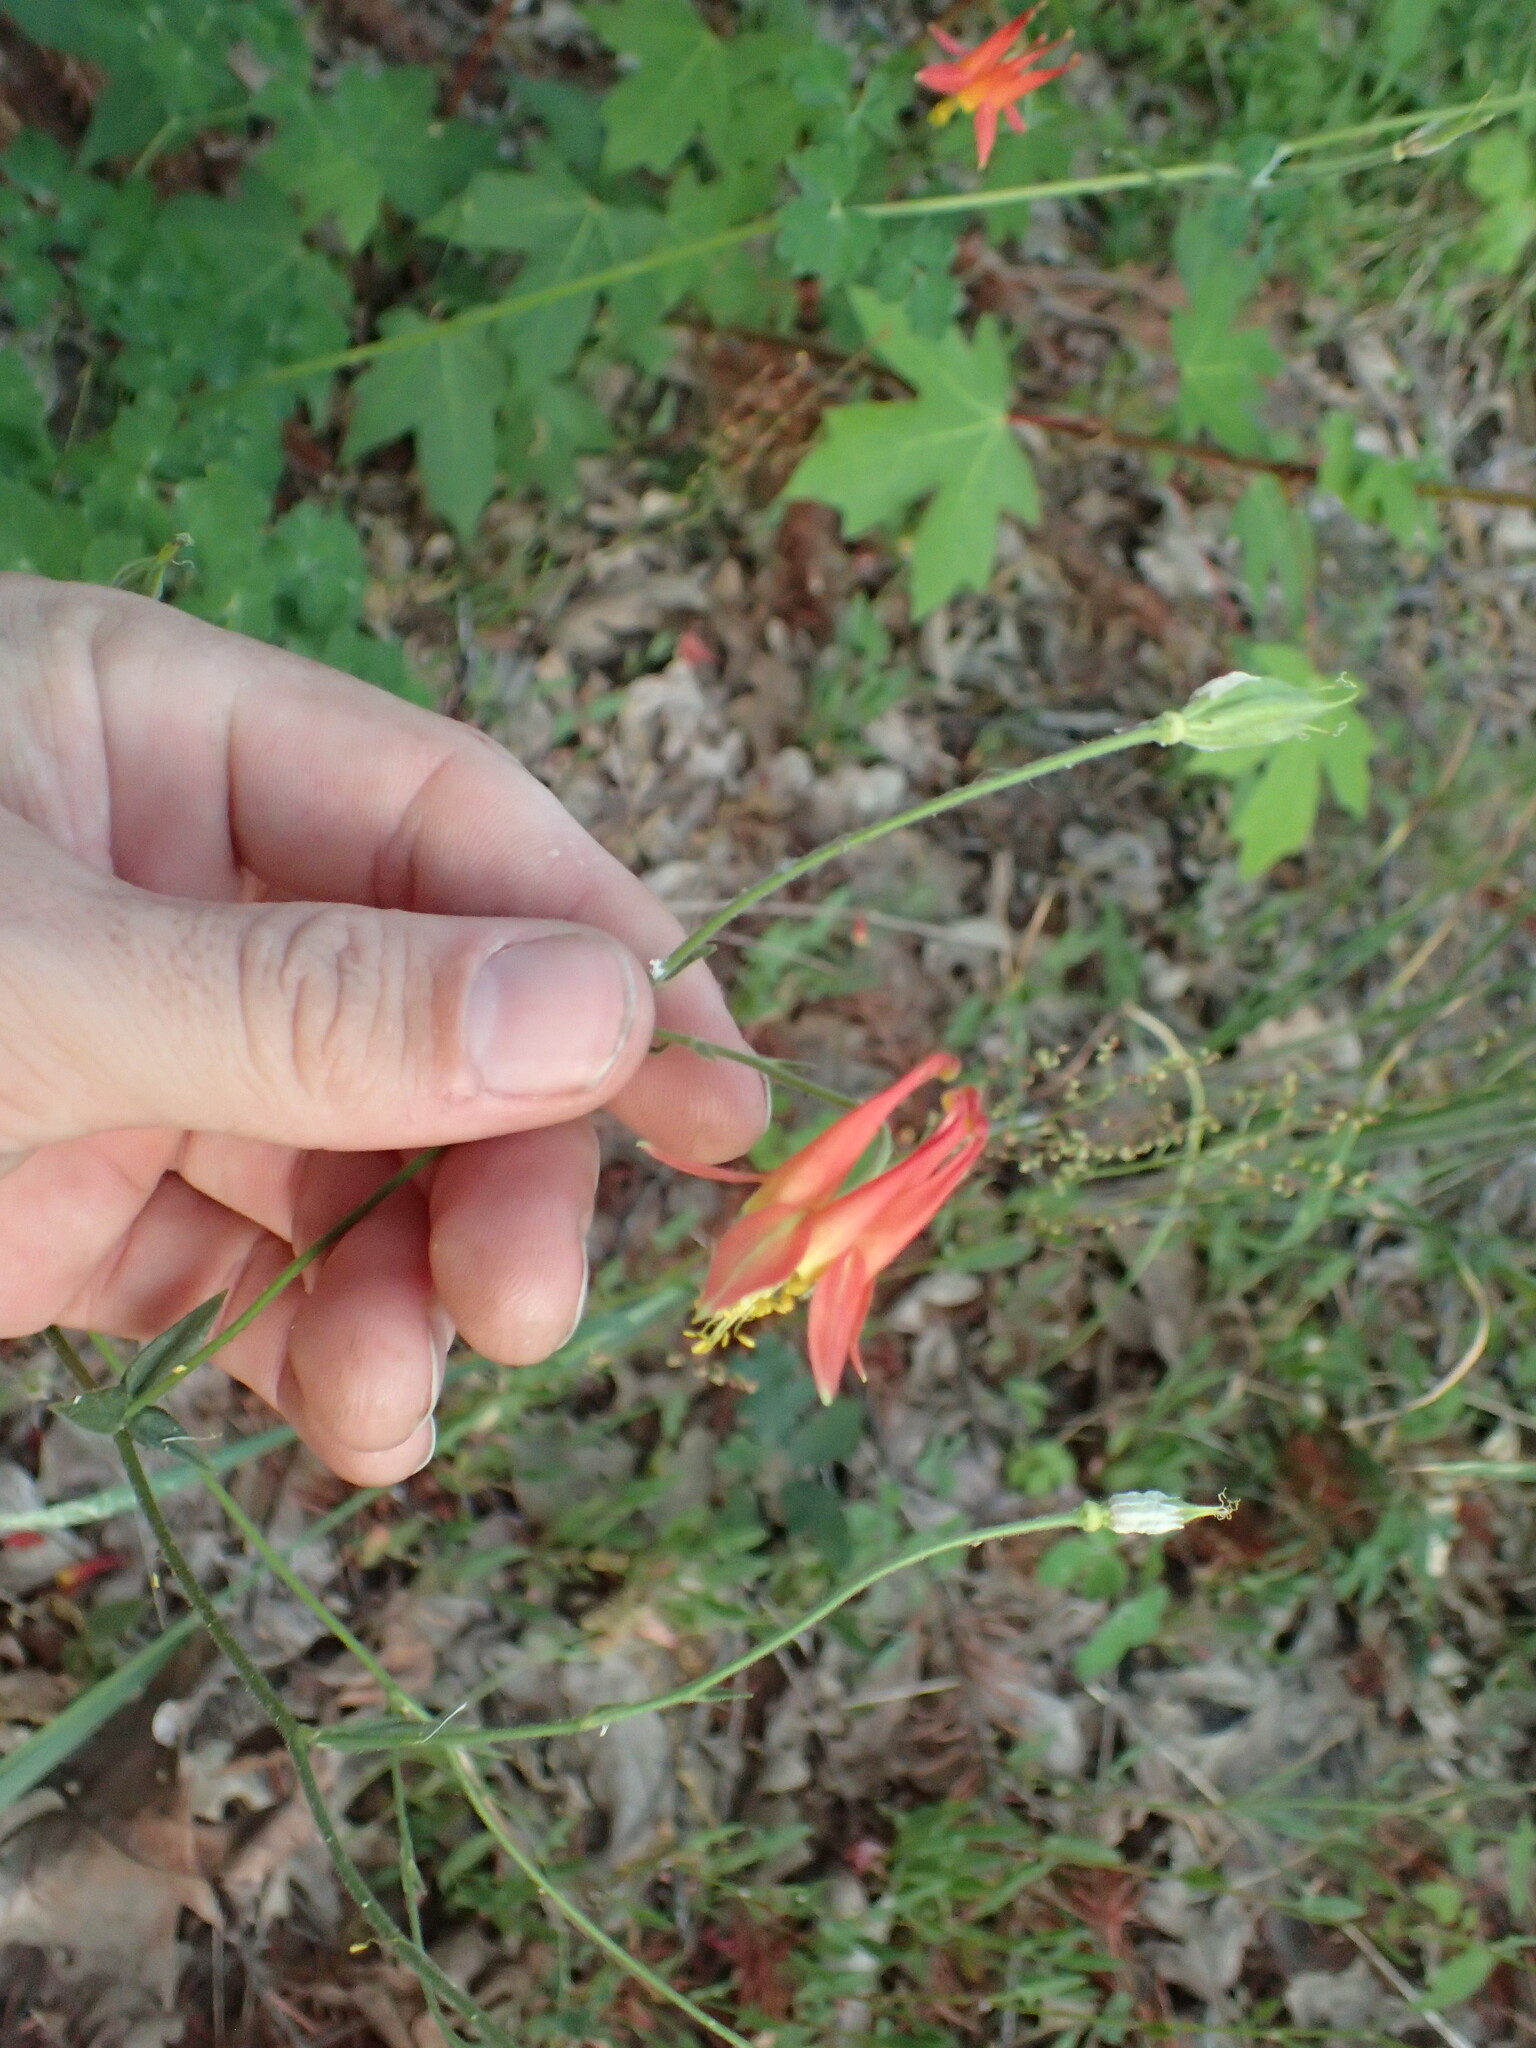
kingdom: Plantae
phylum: Tracheophyta
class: Magnoliopsida
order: Ranunculales
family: Ranunculaceae
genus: Aquilegia
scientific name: Aquilegia formosa
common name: Sitka columbine
